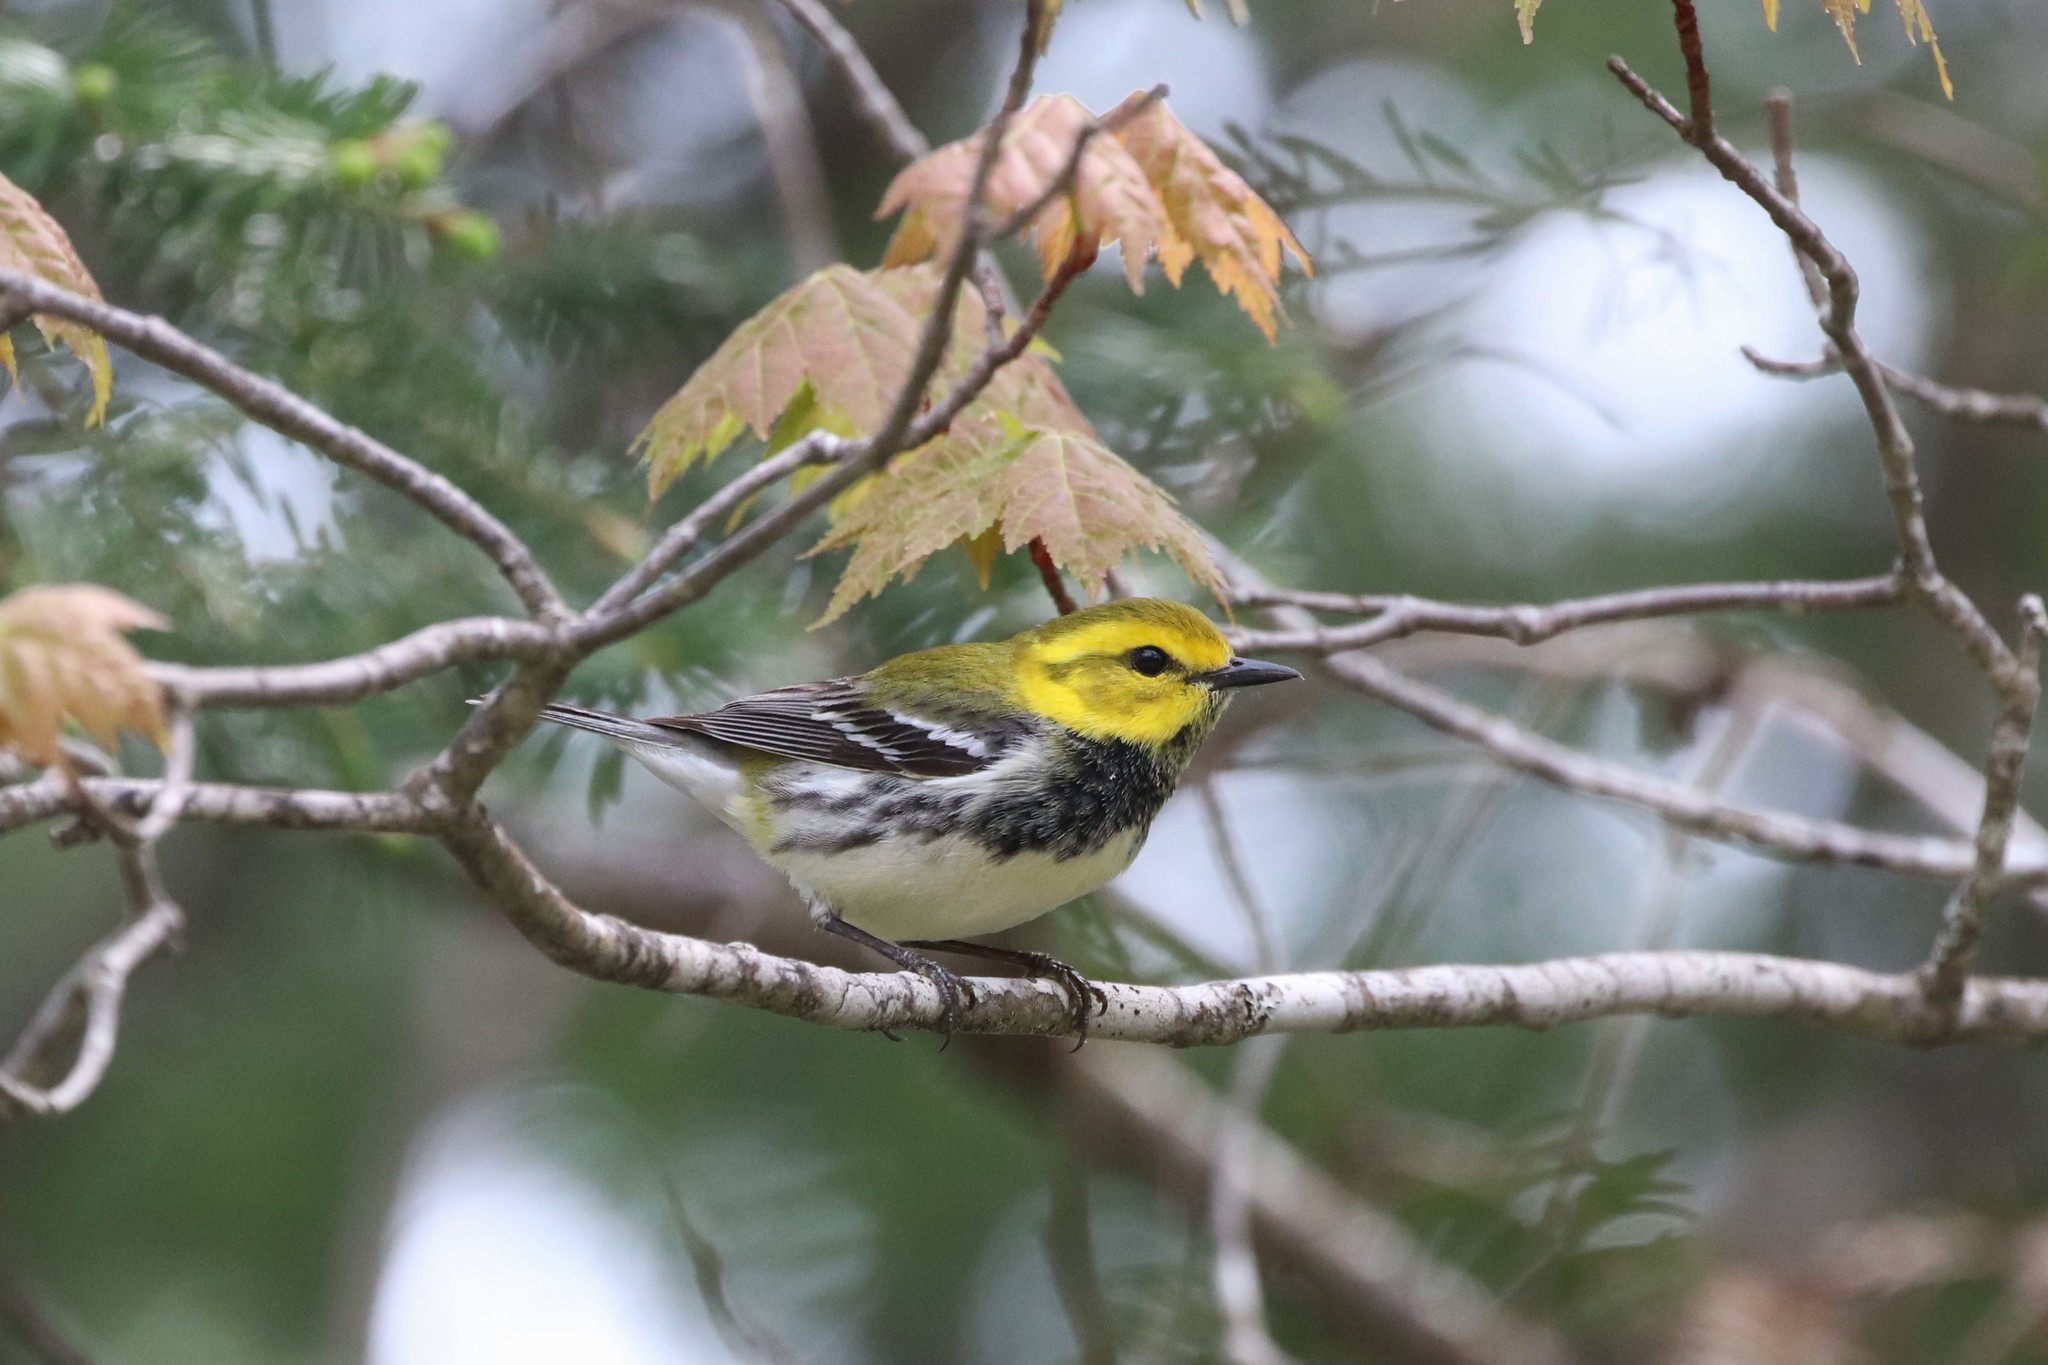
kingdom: Animalia
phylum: Chordata
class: Aves
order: Passeriformes
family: Parulidae
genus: Setophaga
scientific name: Setophaga virens
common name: Black-throated green warbler
